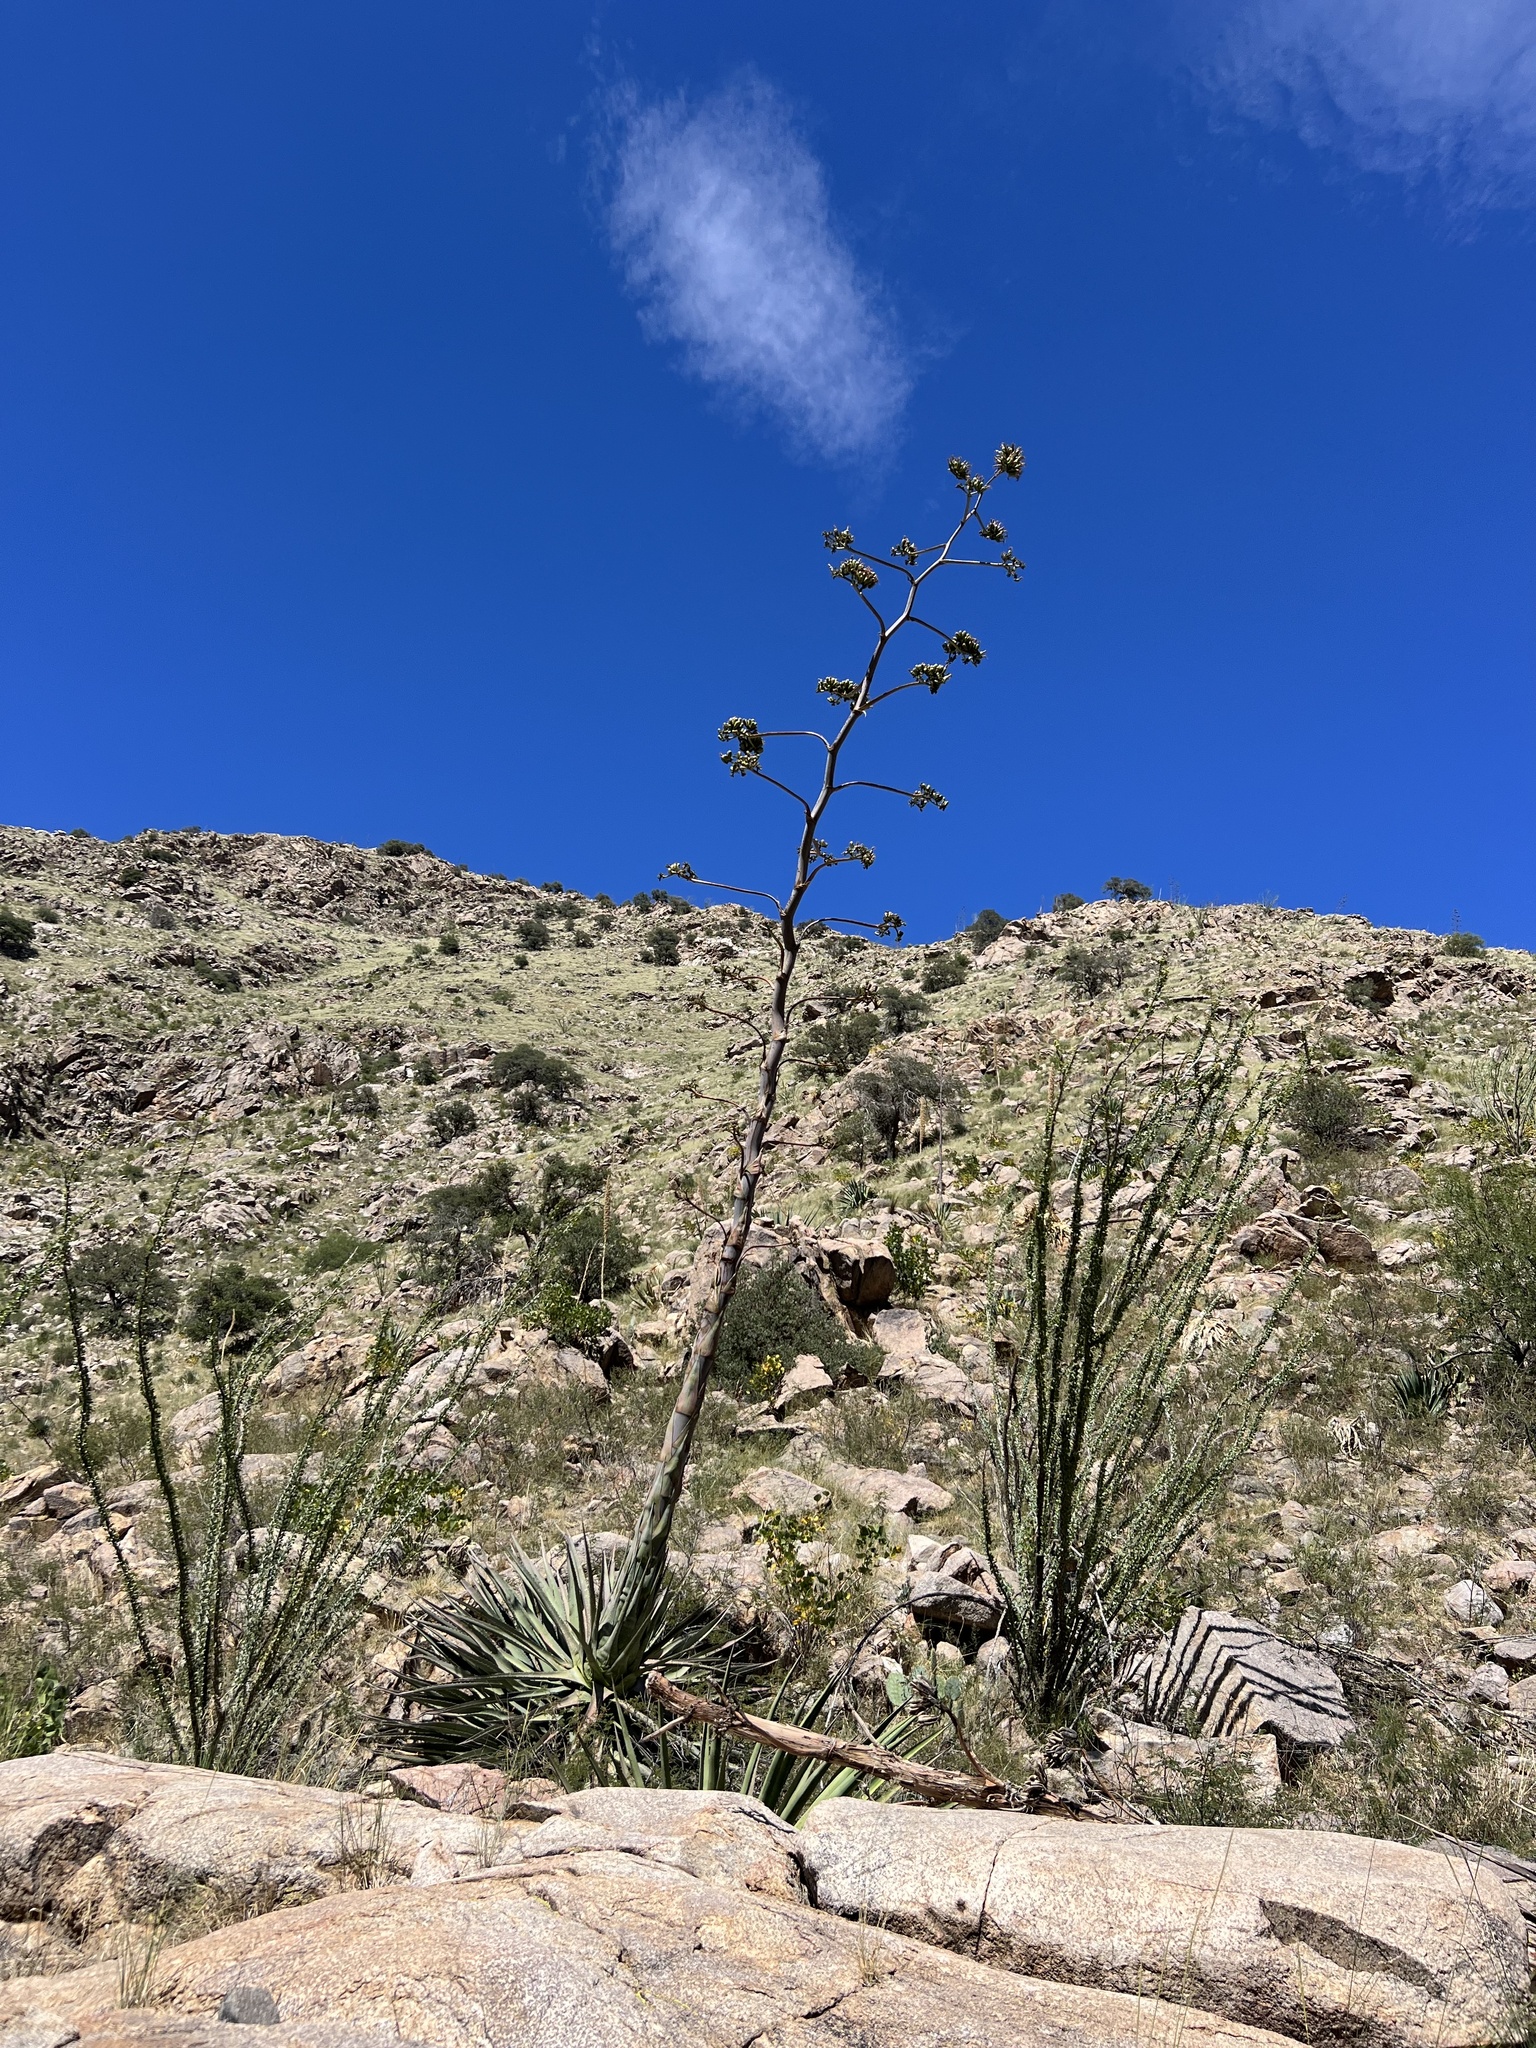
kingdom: Plantae
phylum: Tracheophyta
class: Liliopsida
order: Asparagales
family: Asparagaceae
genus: Agave
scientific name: Agave palmeri
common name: Palmer agave
